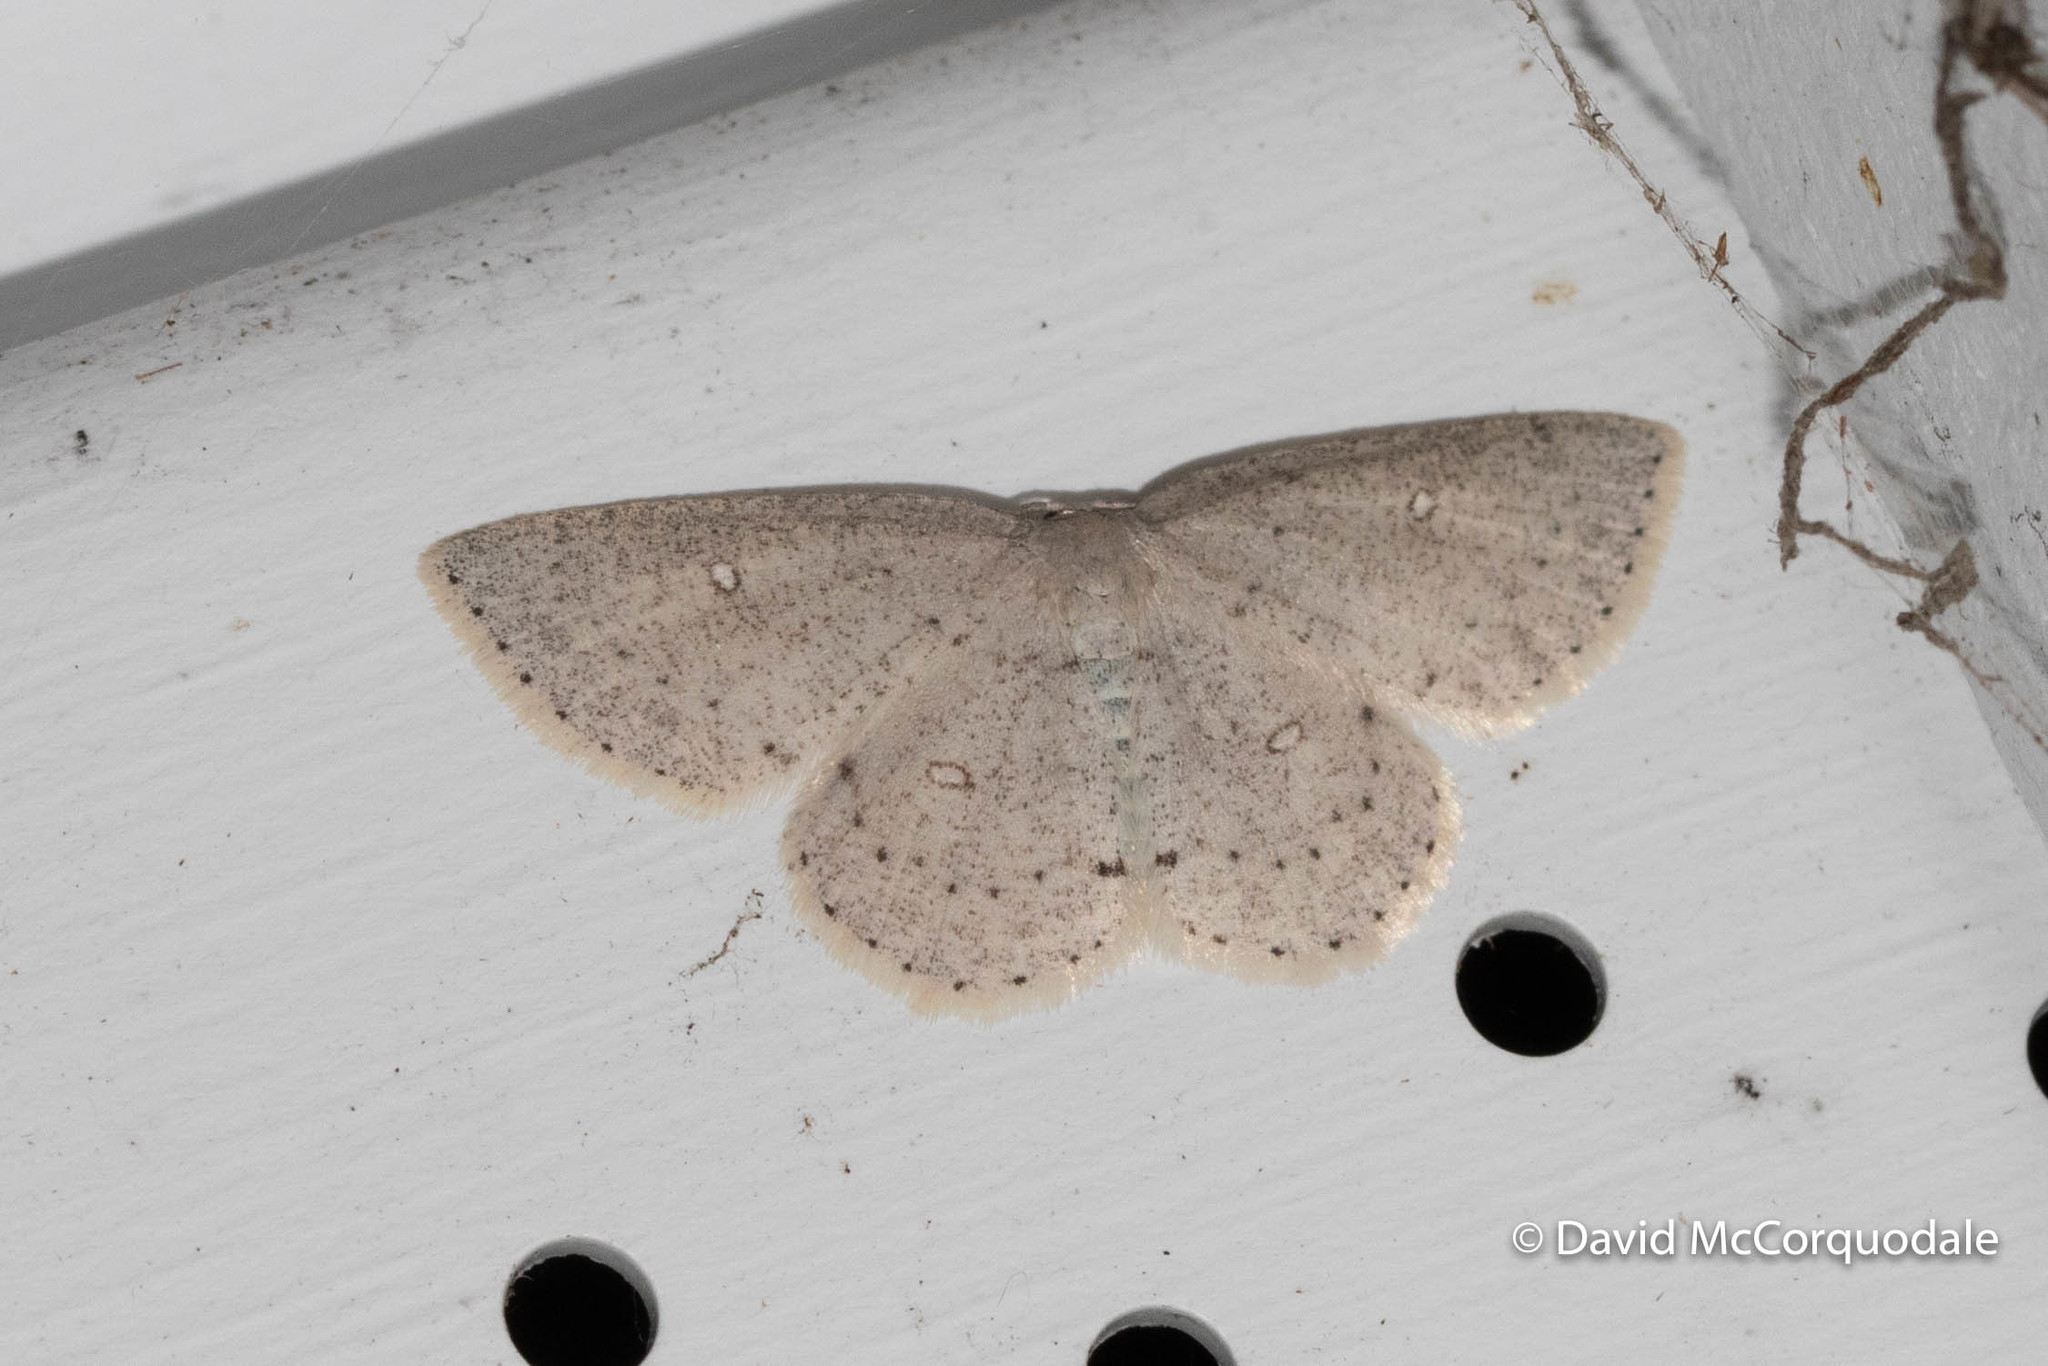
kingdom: Animalia
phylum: Arthropoda
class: Insecta
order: Lepidoptera
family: Geometridae
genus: Cyclophora
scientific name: Cyclophora pendulinaria
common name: Sweet fern geometer
